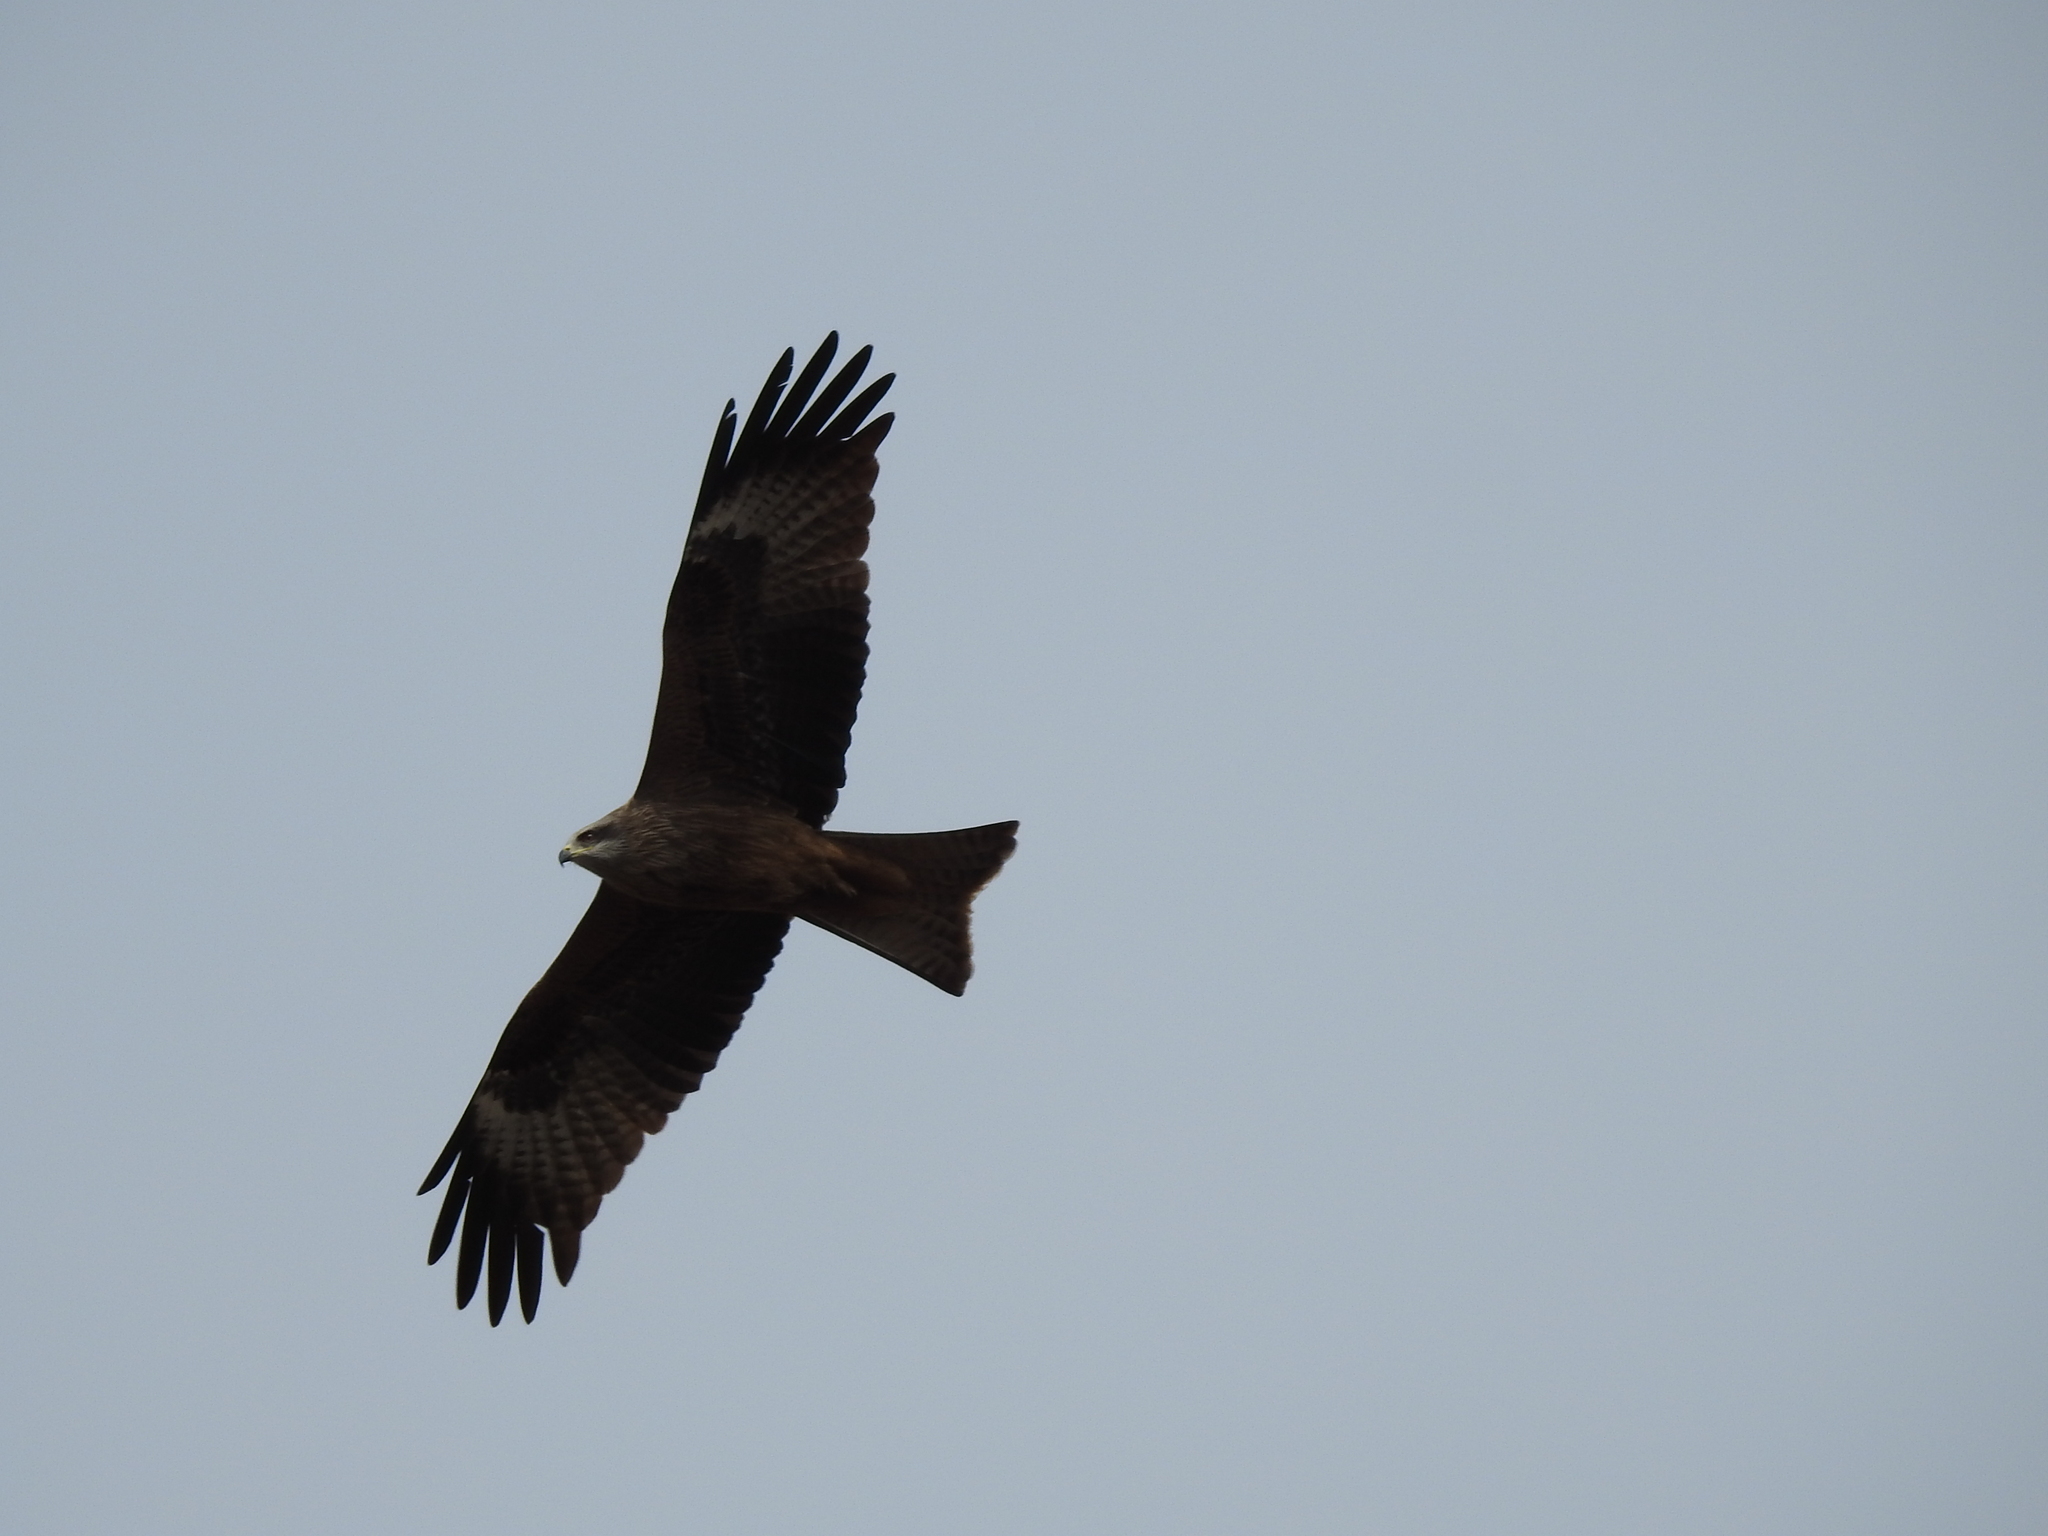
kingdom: Animalia
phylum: Chordata
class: Aves
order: Accipitriformes
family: Accipitridae
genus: Milvus
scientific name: Milvus migrans
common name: Black kite
